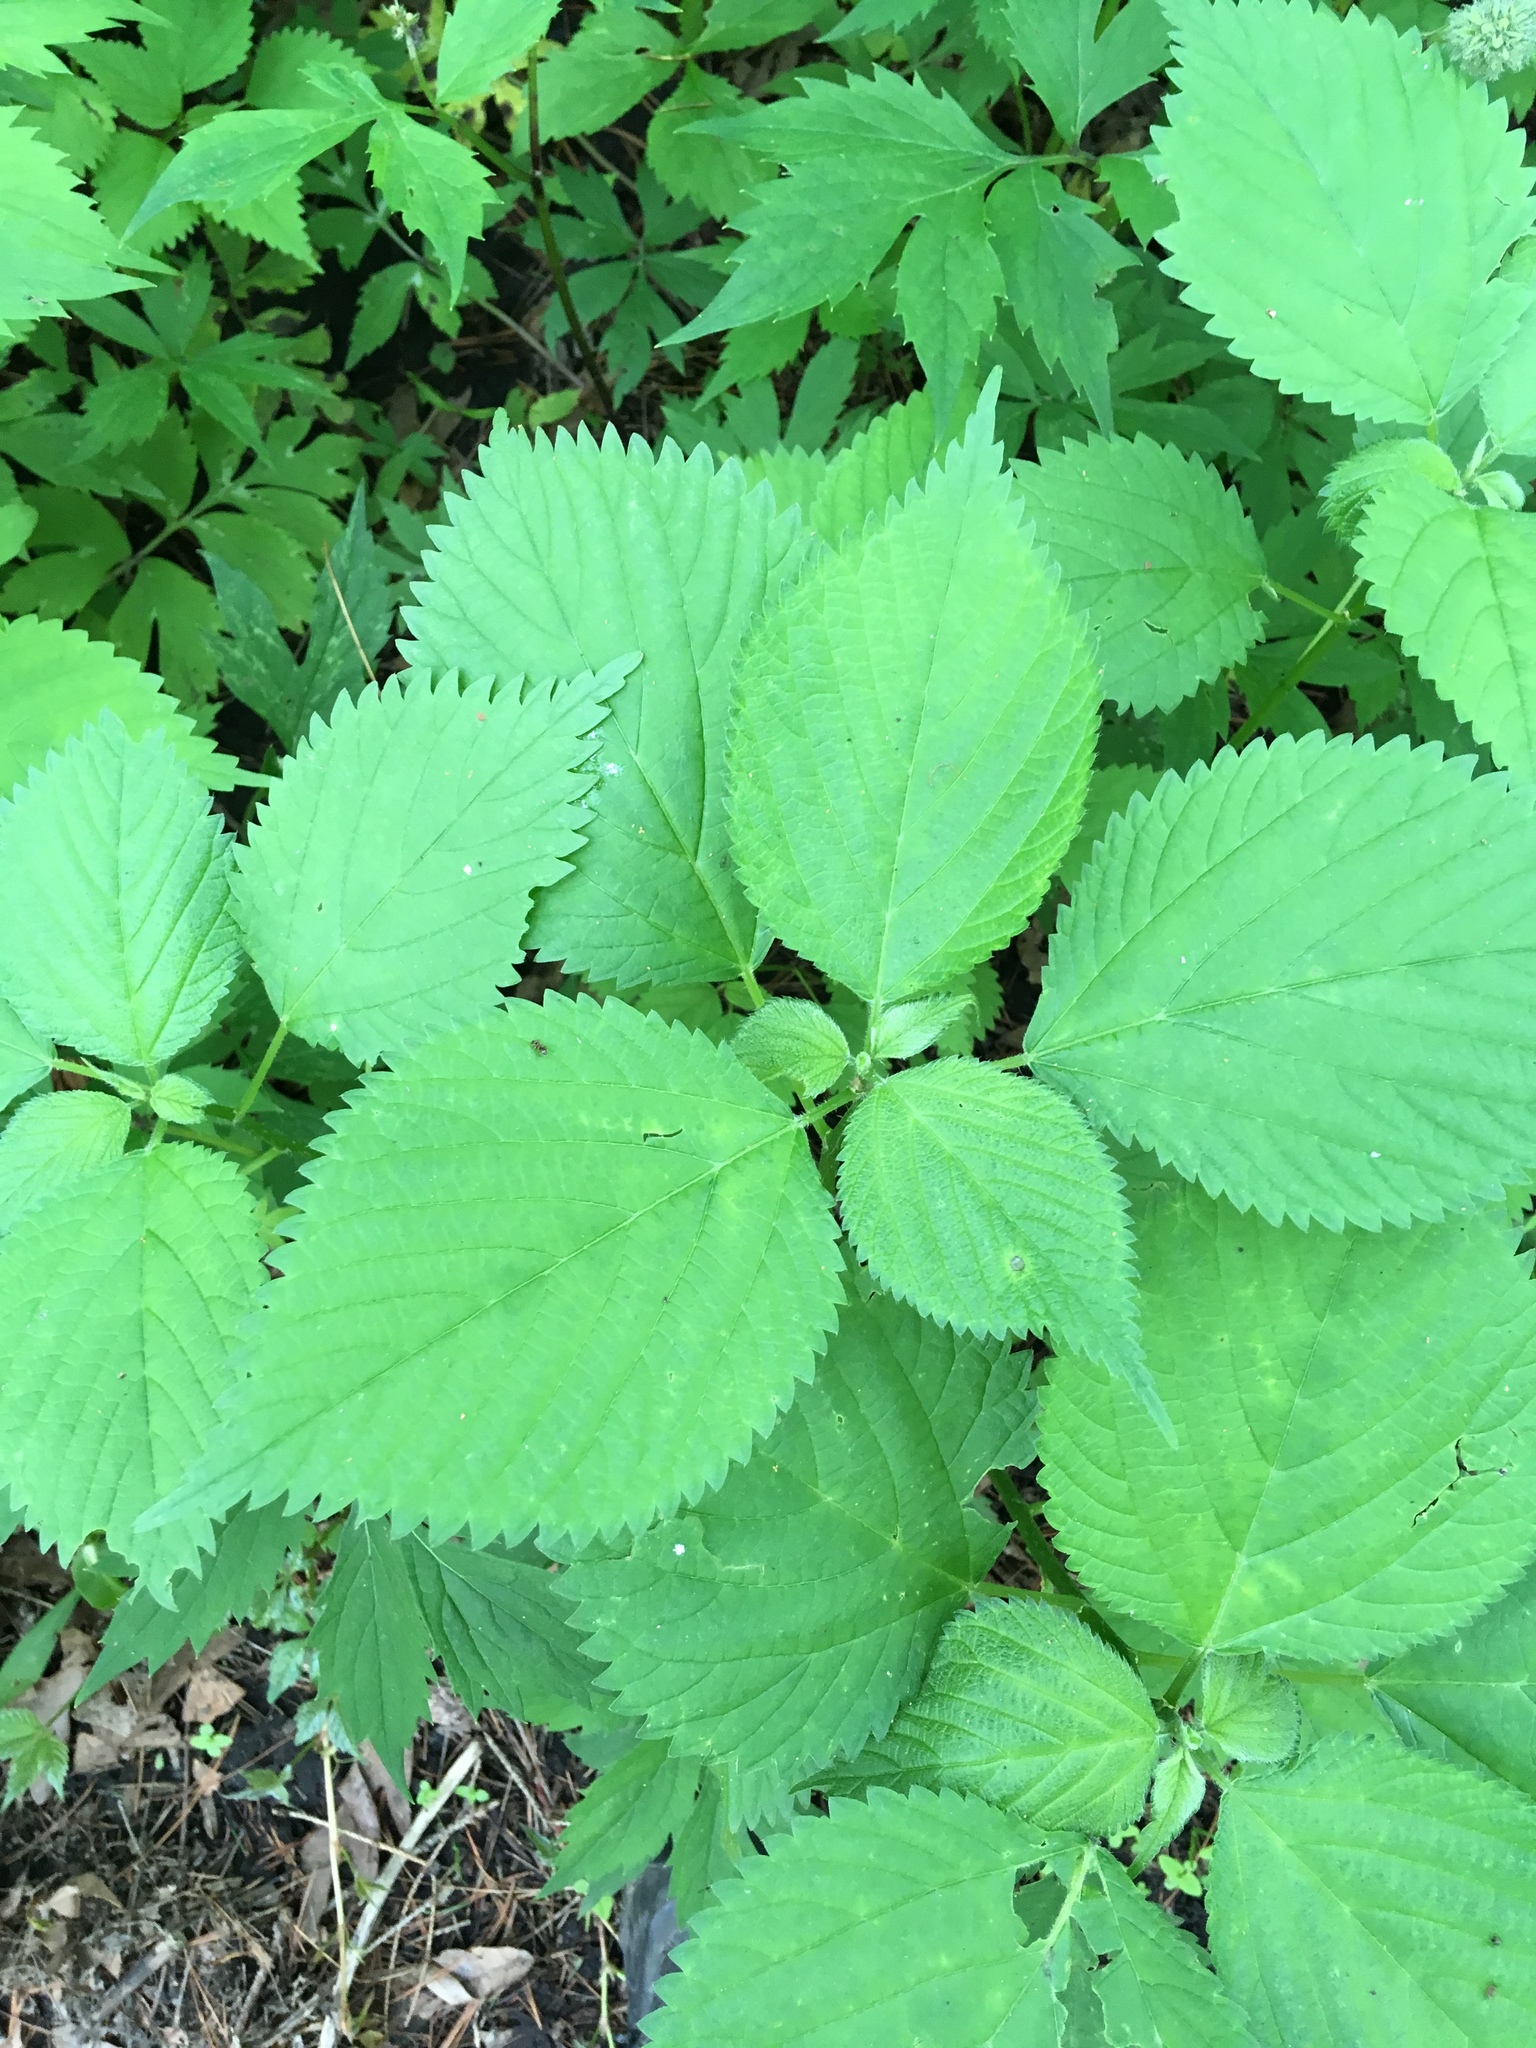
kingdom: Plantae
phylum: Tracheophyta
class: Magnoliopsida
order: Rosales
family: Urticaceae
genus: Laportea
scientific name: Laportea canadensis
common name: Canada nettle
